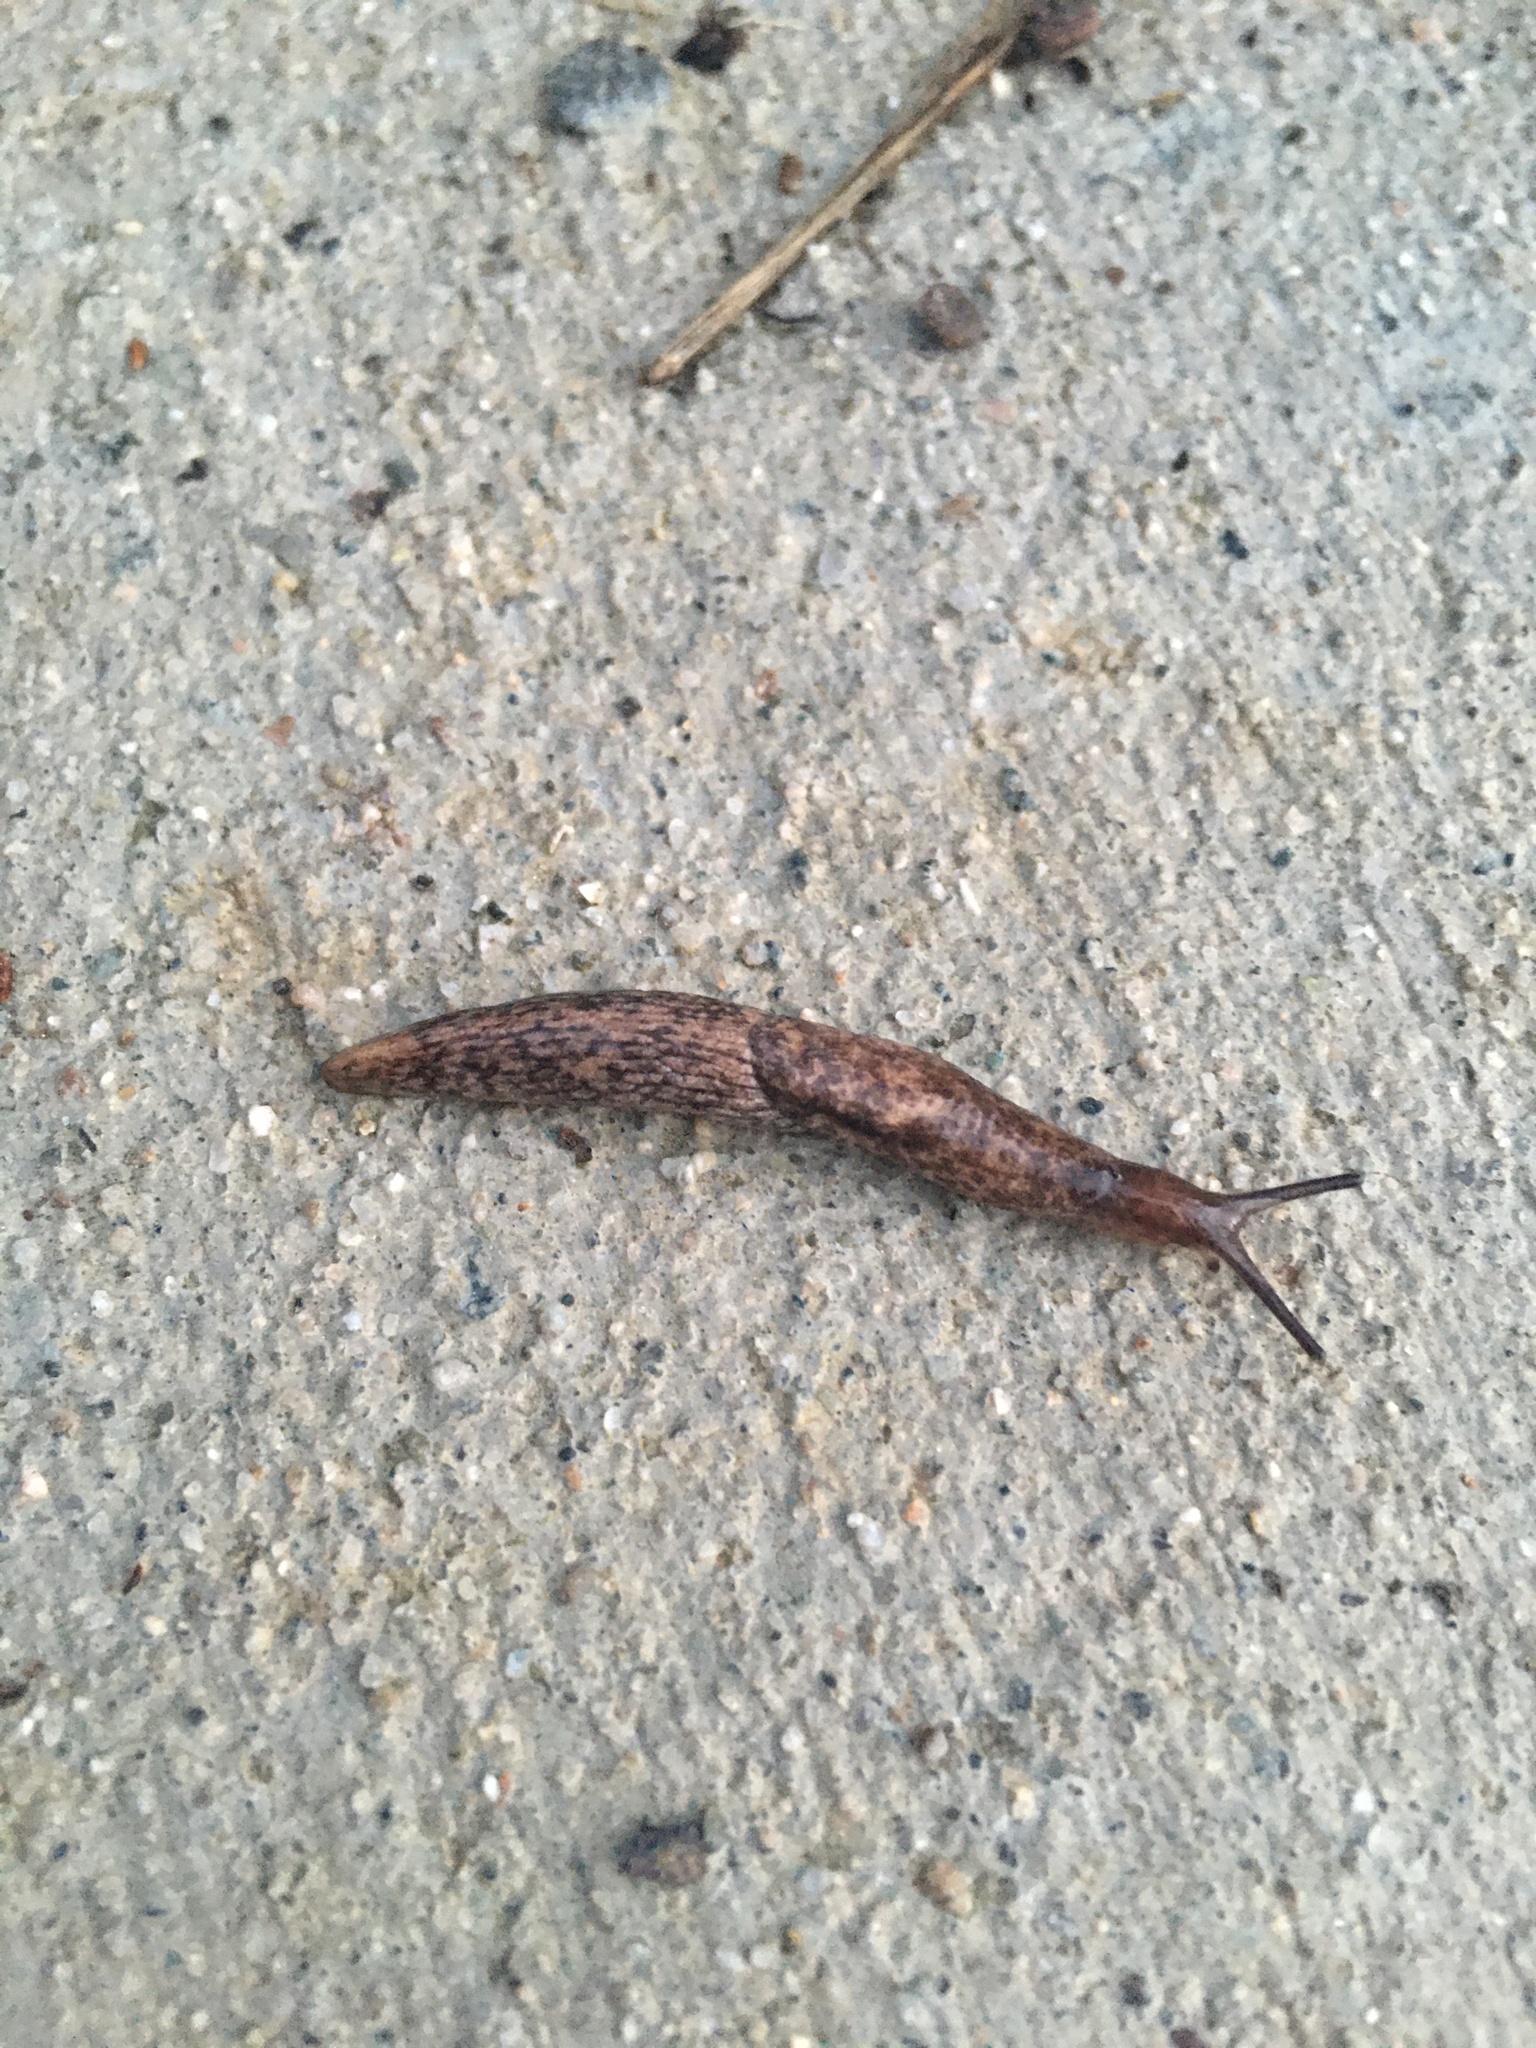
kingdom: Animalia
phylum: Mollusca
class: Gastropoda
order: Stylommatophora
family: Agriolimacidae
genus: Deroceras
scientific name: Deroceras reticulatum
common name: Gray field slug
